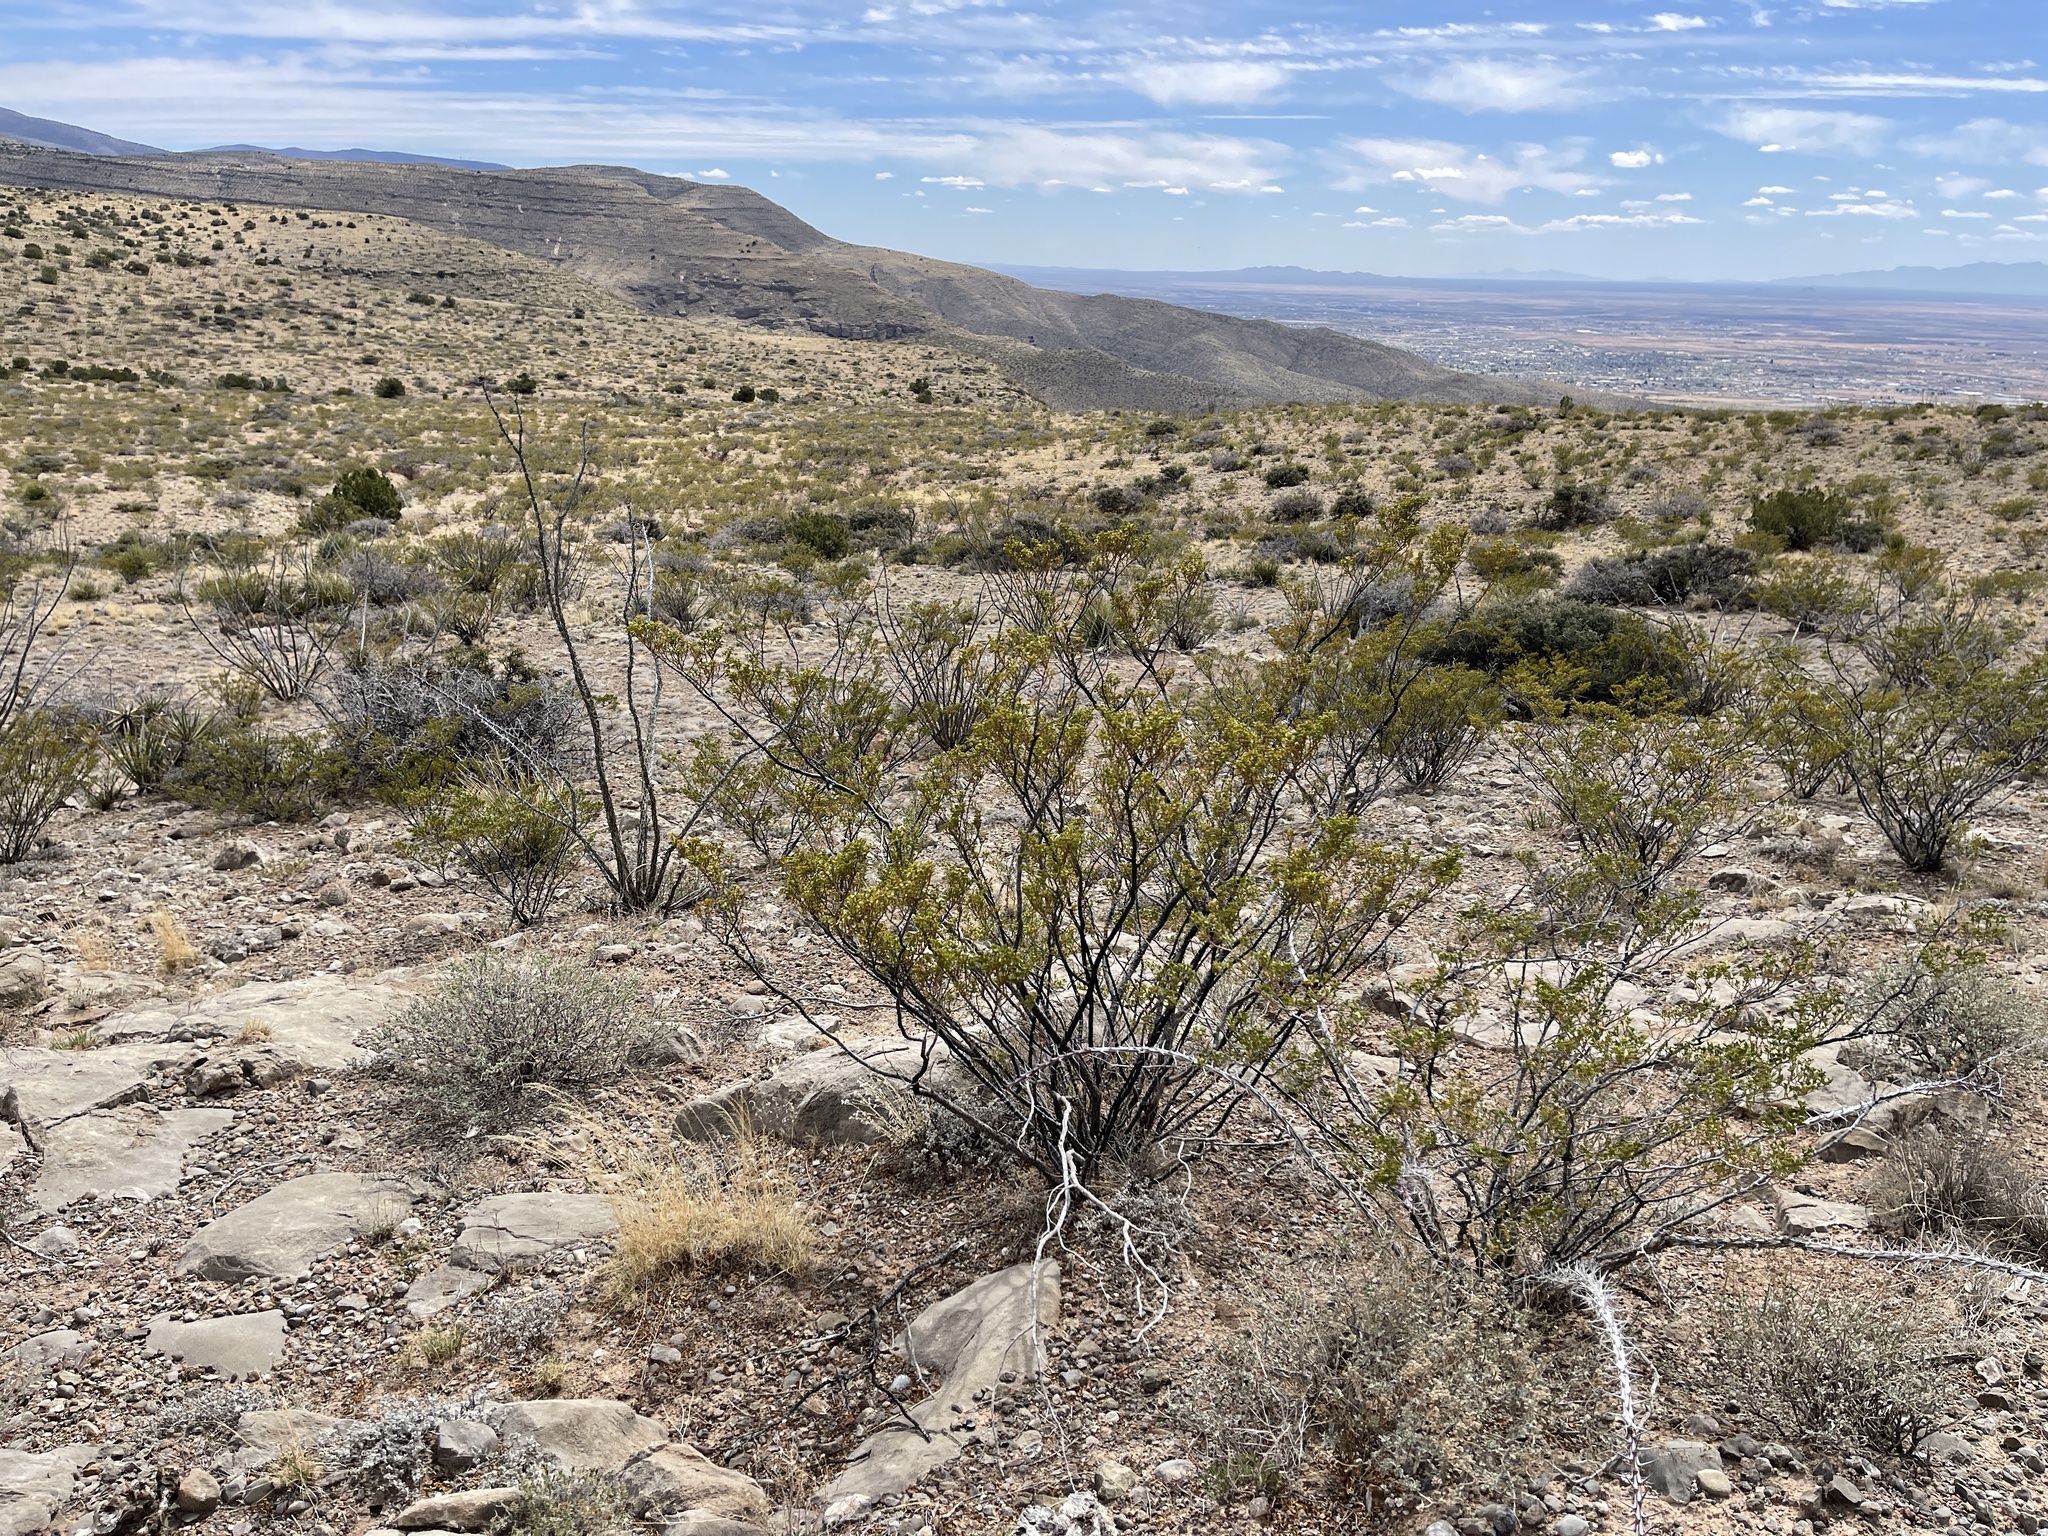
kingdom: Plantae
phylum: Tracheophyta
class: Magnoliopsida
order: Zygophyllales
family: Zygophyllaceae
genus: Larrea
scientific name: Larrea tridentata
